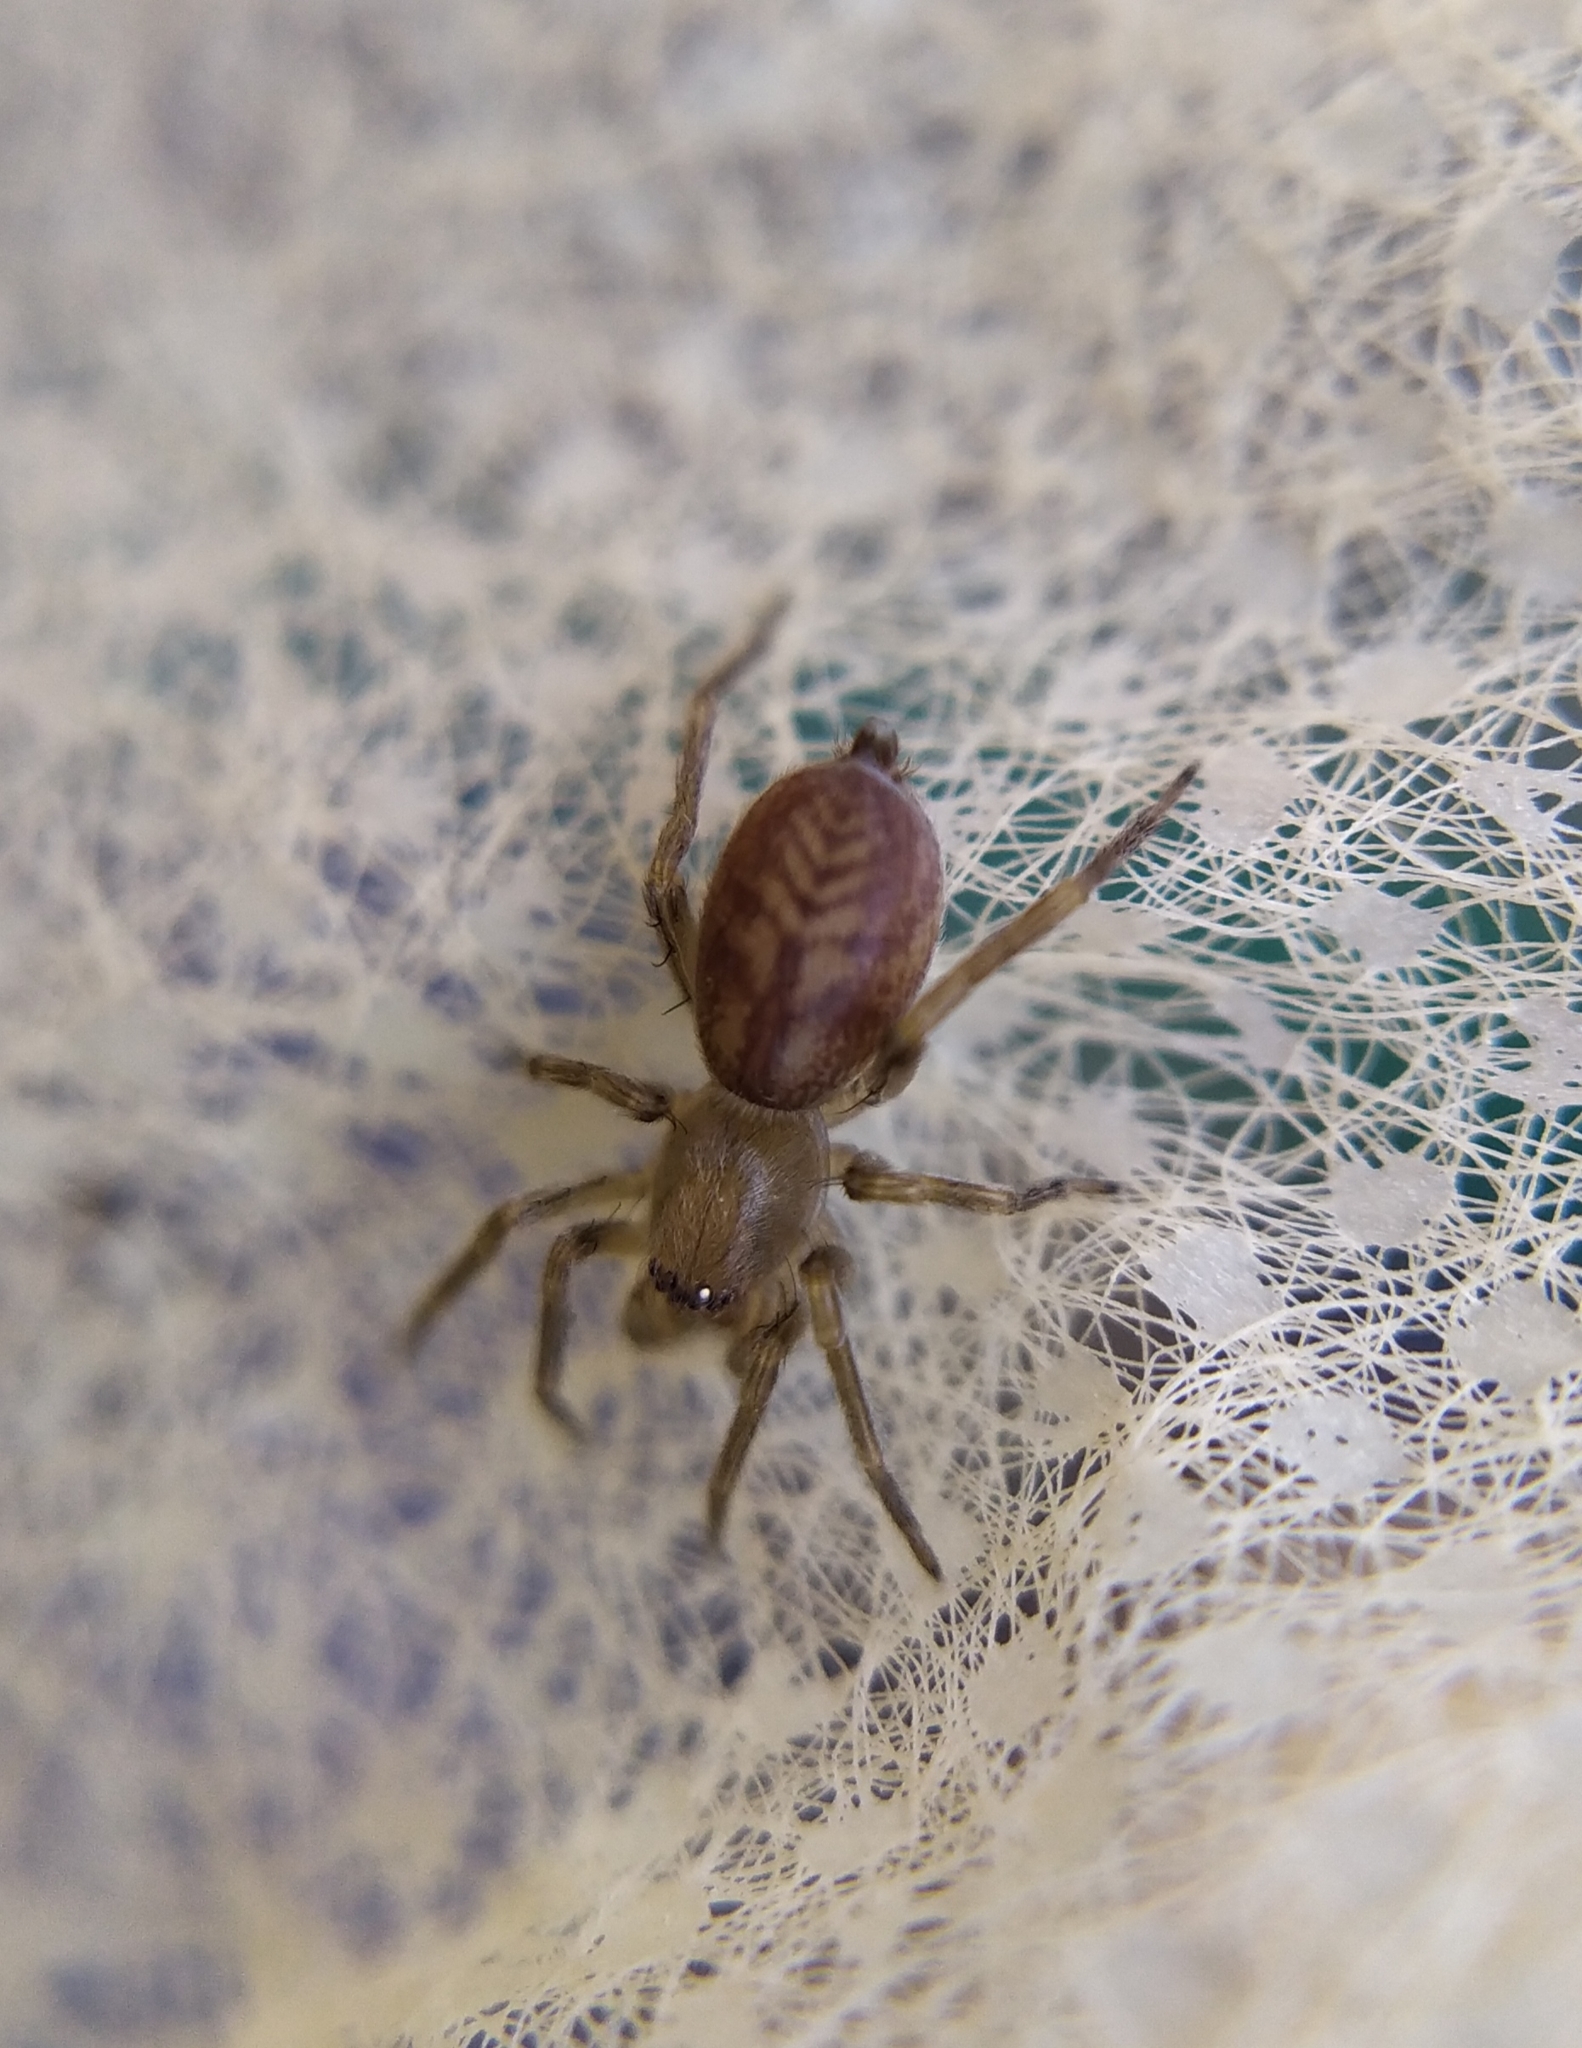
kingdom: Animalia
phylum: Arthropoda
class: Arachnida
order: Araneae
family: Clubionidae
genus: Clubiona
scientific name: Clubiona comta
